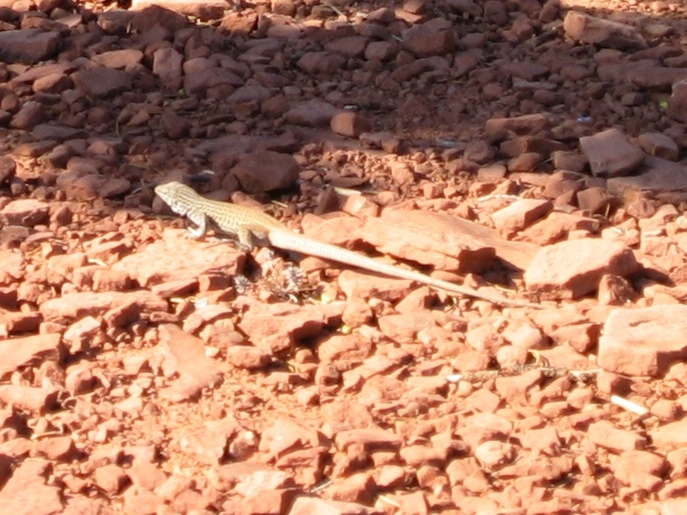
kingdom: Animalia
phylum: Chordata
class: Squamata
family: Teiidae
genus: Aspidoscelis
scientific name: Aspidoscelis tigris
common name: Tiger whiptail
